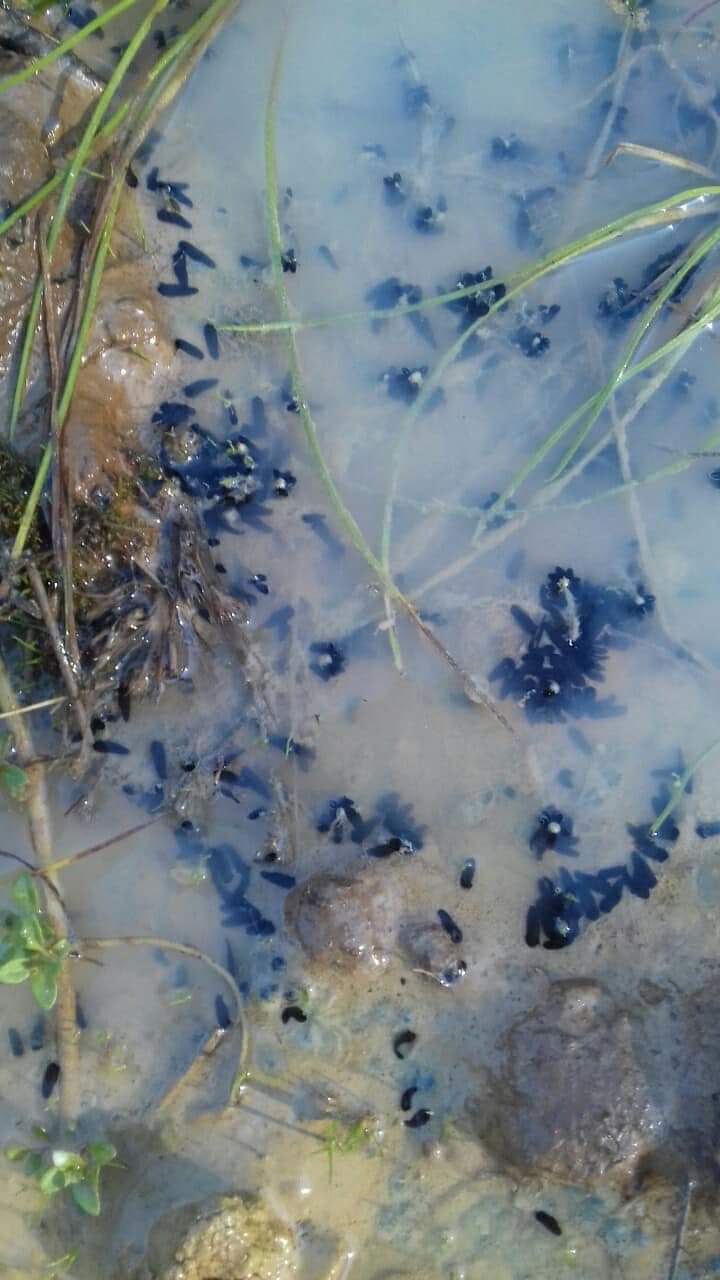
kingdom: Animalia
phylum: Chordata
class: Amphibia
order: Anura
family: Alytidae
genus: Discoglossus
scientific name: Discoglossus galganoi
